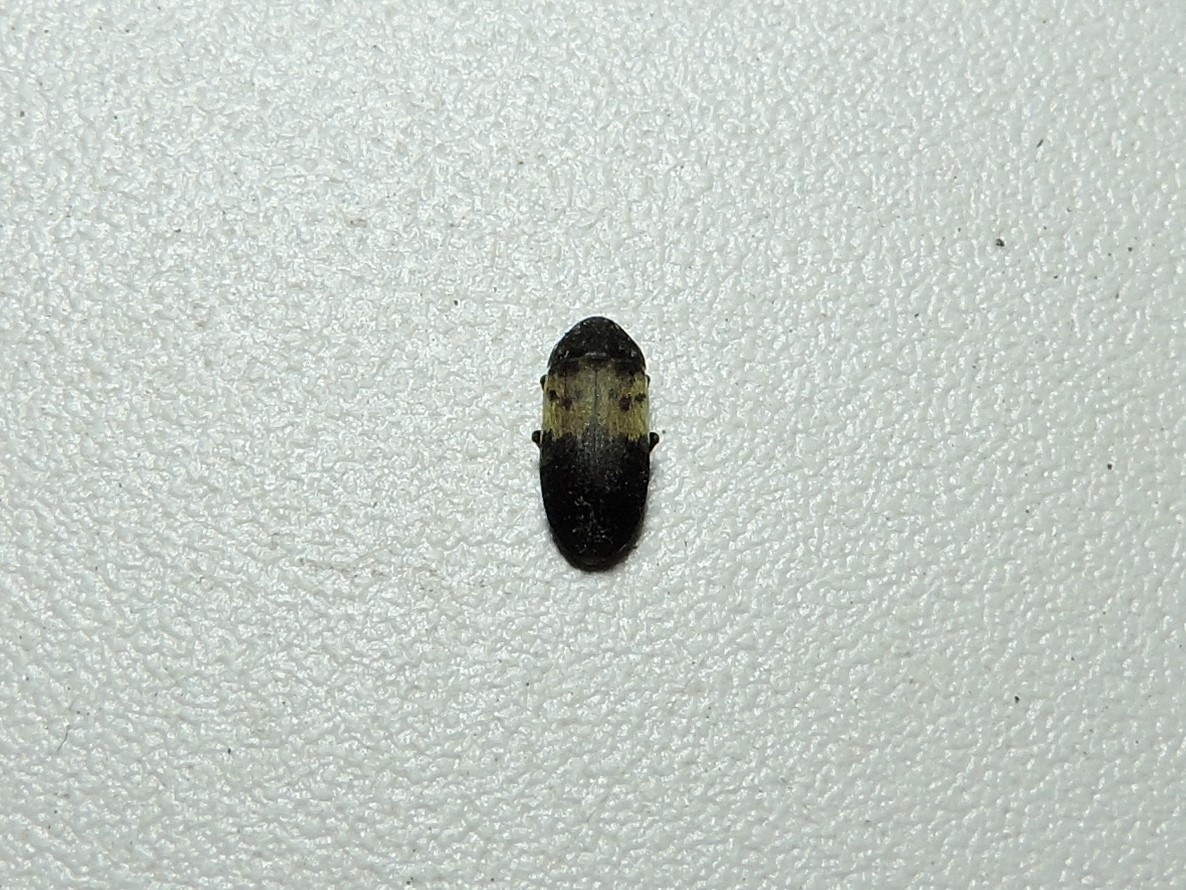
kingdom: Animalia
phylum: Arthropoda
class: Insecta
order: Coleoptera
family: Dermestidae
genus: Dermestes
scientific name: Dermestes lardarius
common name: Larder beetle
